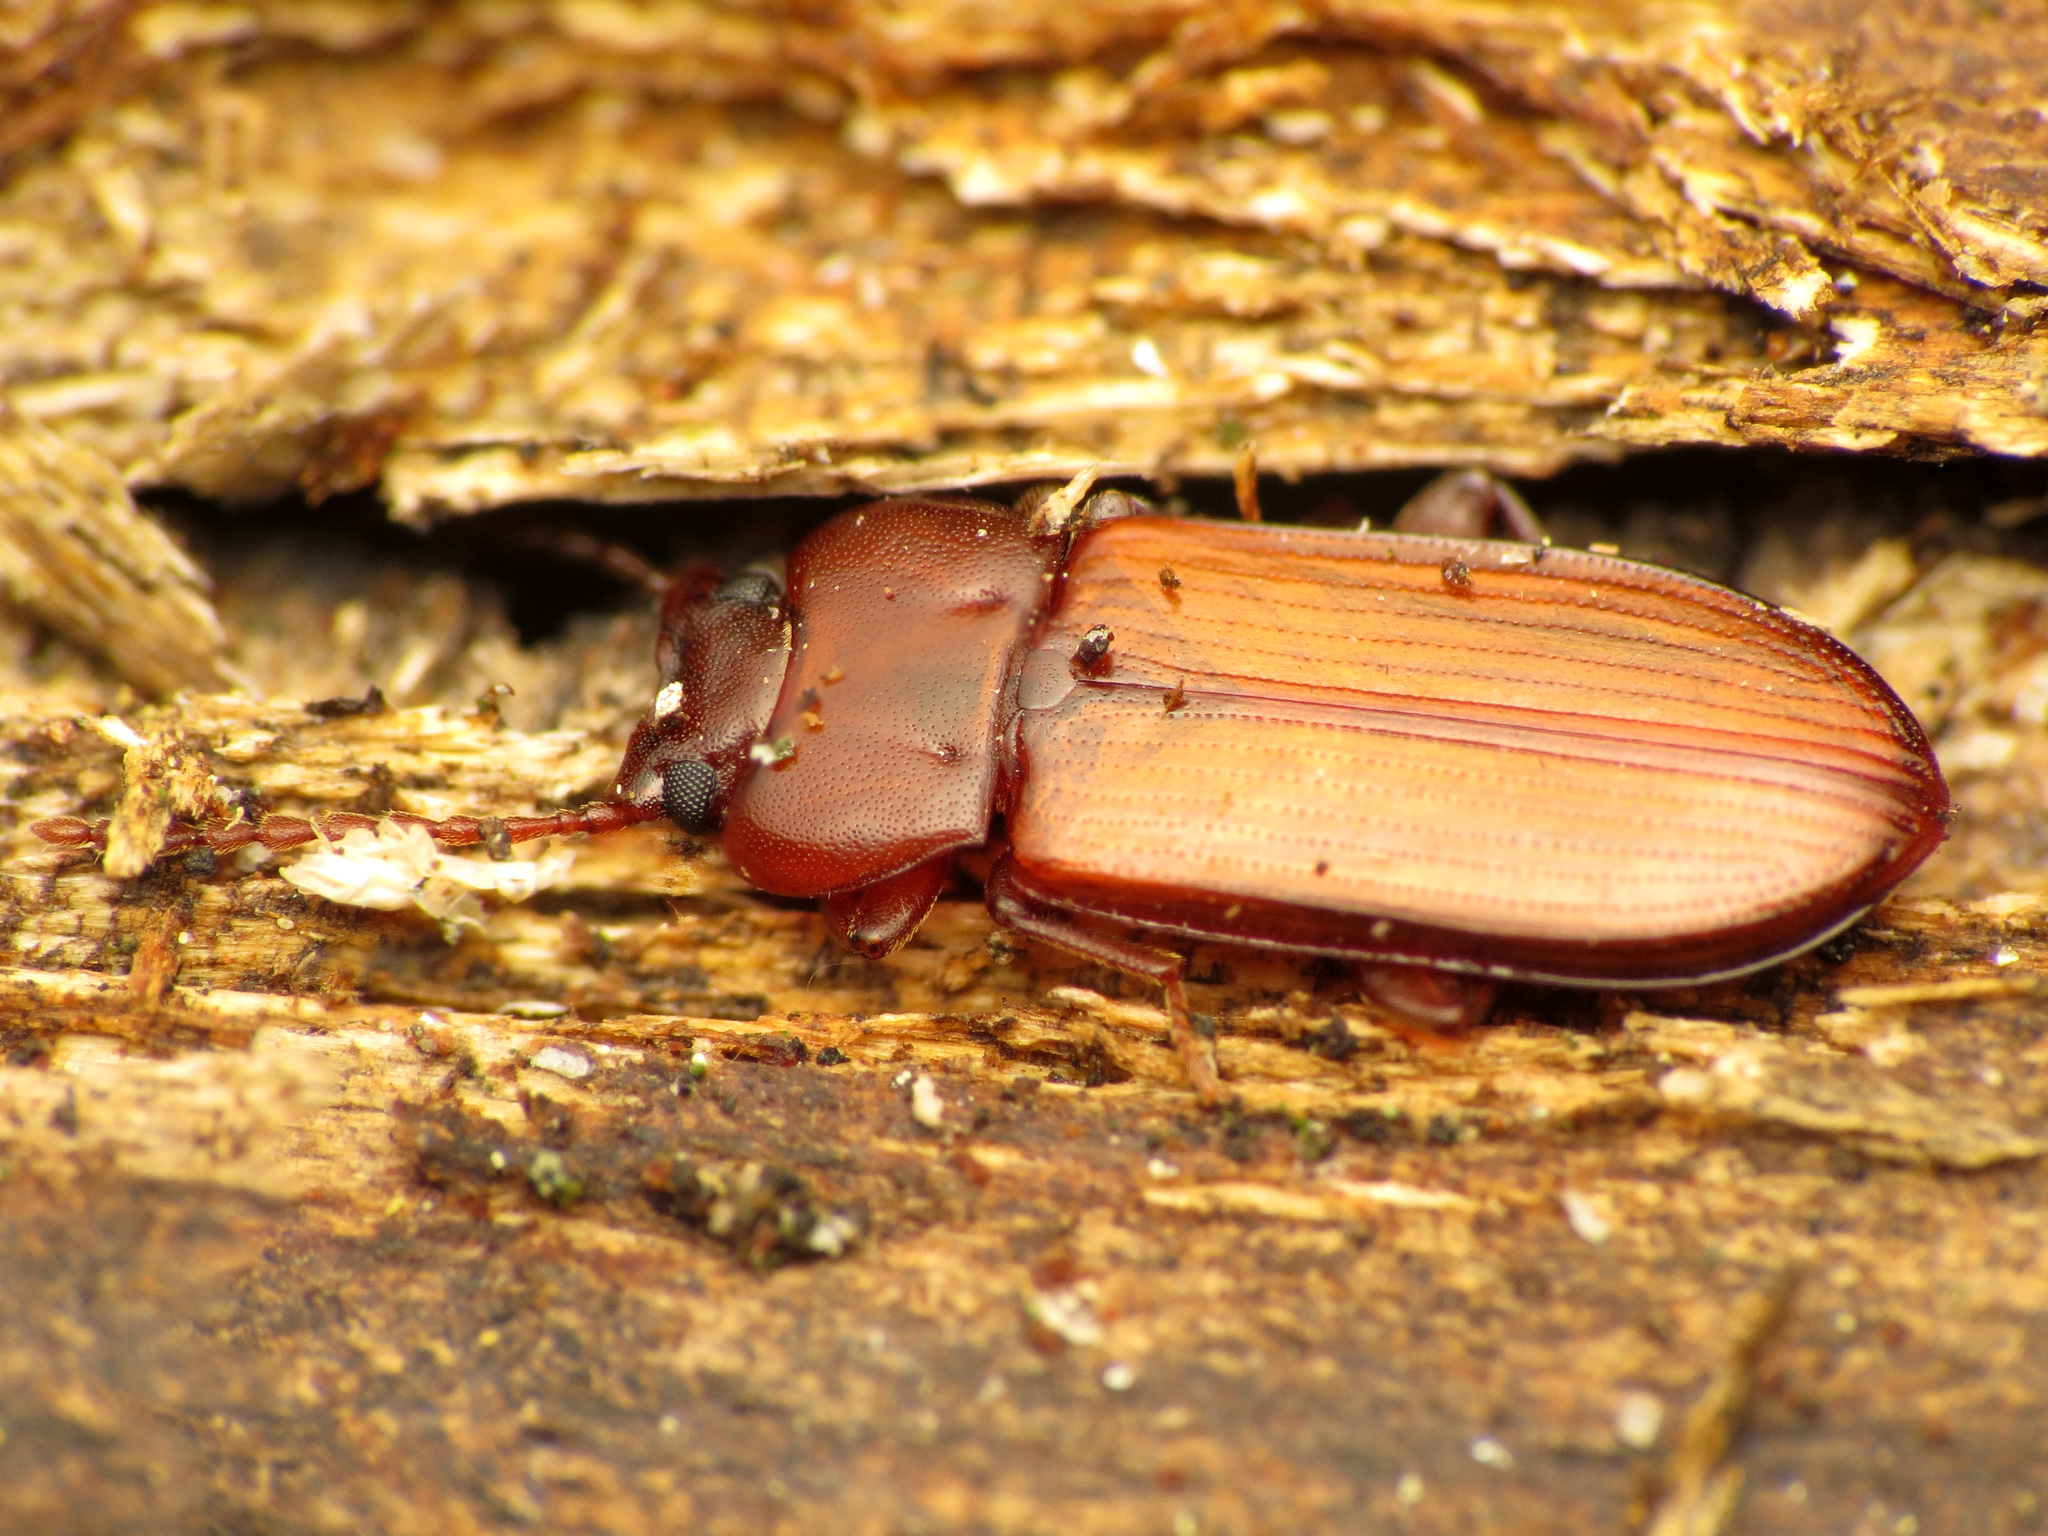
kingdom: Animalia
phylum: Arthropoda
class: Insecta
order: Coleoptera
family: Tenebrionidae
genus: Adelina
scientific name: Adelina pallida
